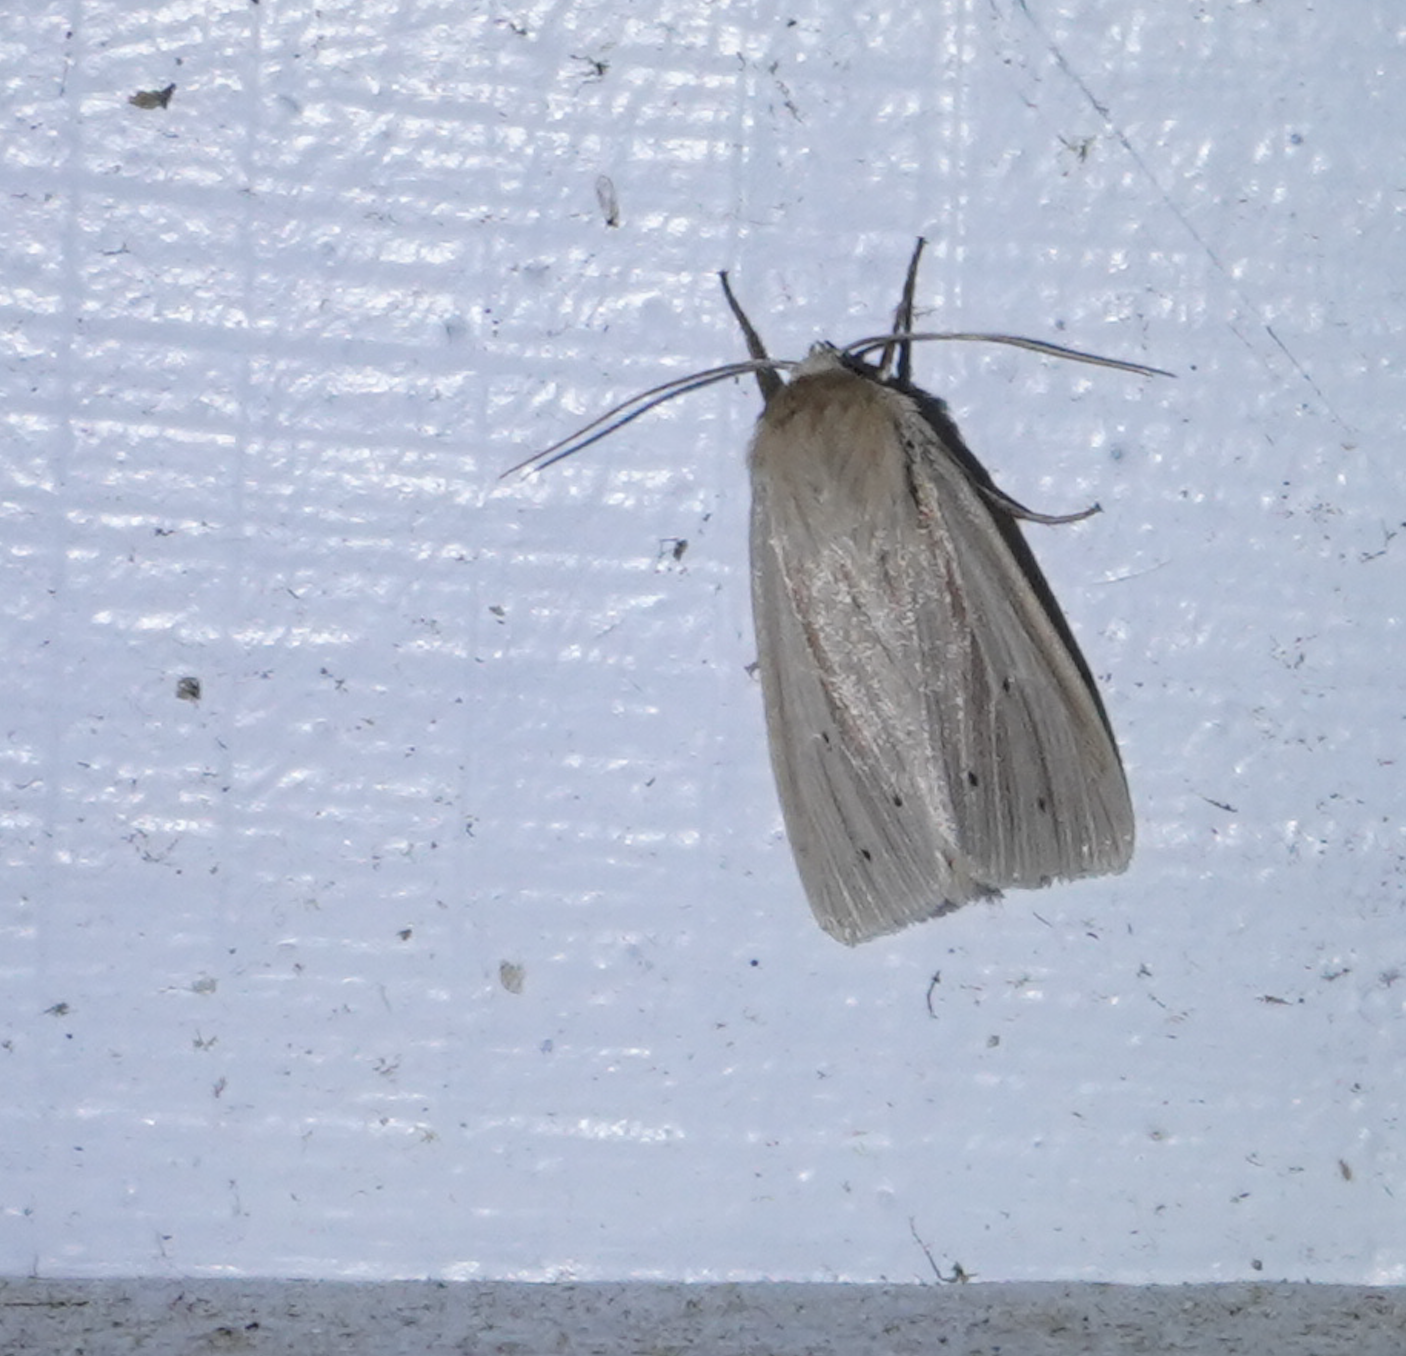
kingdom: Animalia
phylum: Arthropoda
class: Insecta
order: Lepidoptera
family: Noctuidae
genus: Mythimna
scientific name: Mythimna oxygala
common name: Lesser wainscot
